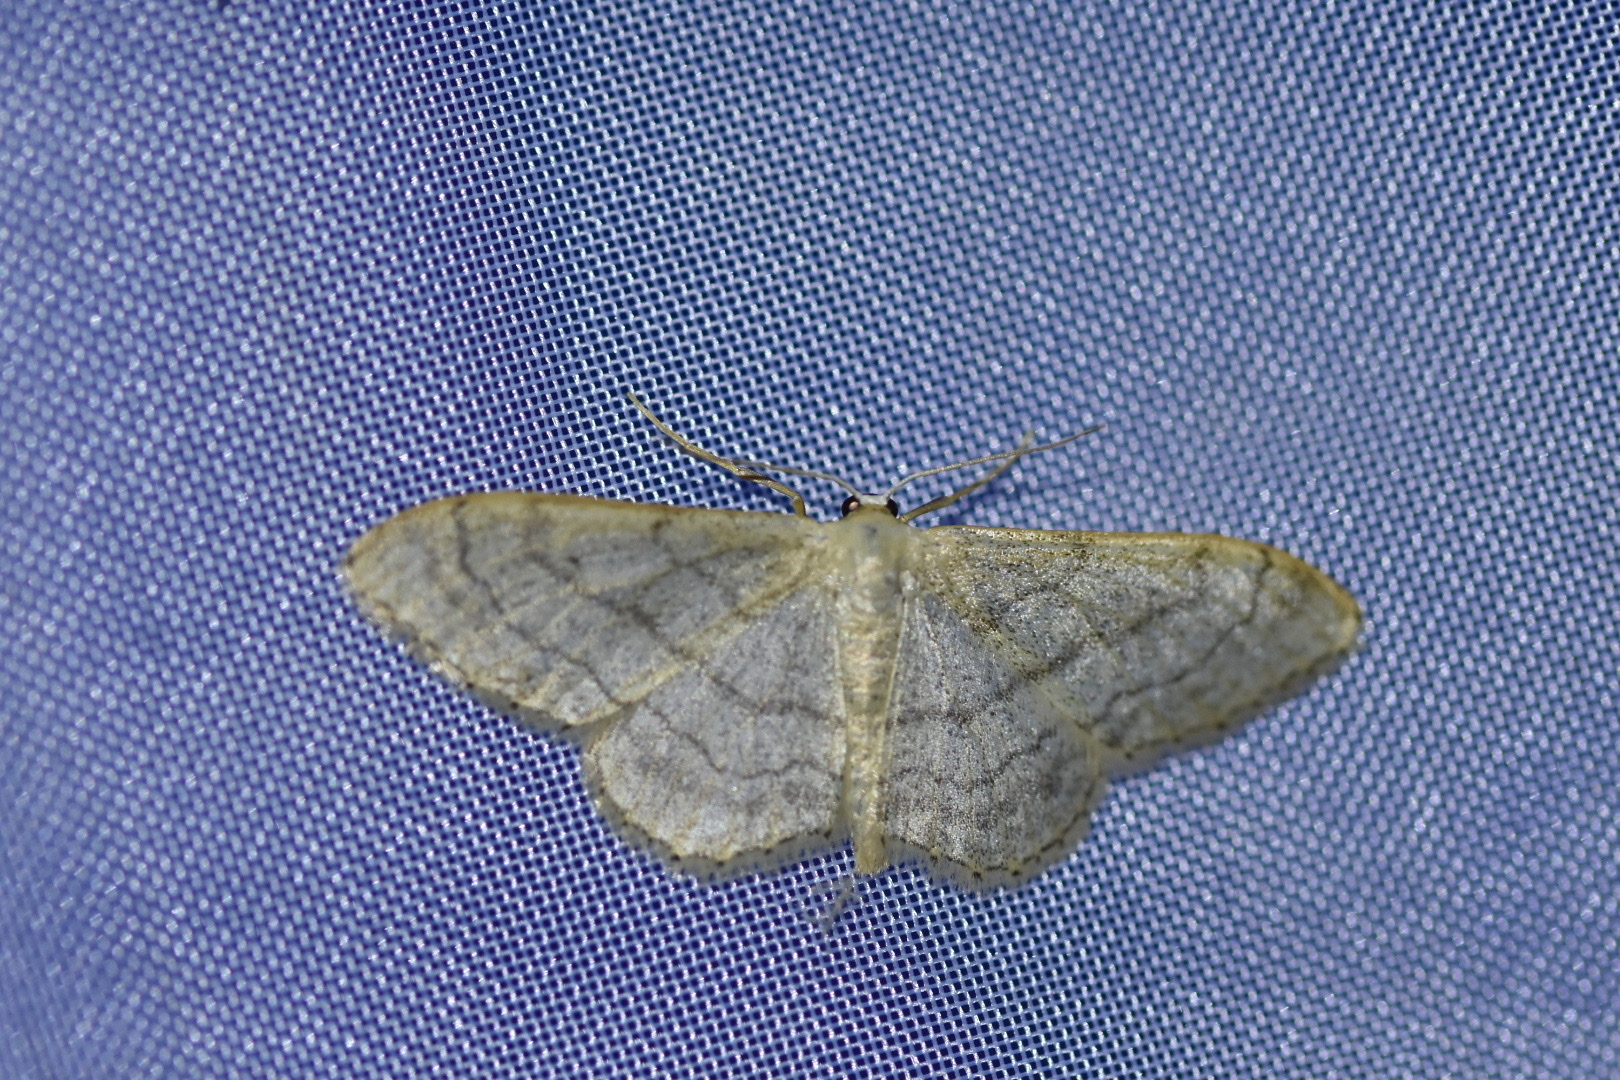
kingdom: Animalia
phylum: Arthropoda
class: Insecta
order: Lepidoptera
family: Geometridae
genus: Idaea
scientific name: Idaea aversata
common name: Riband wave
